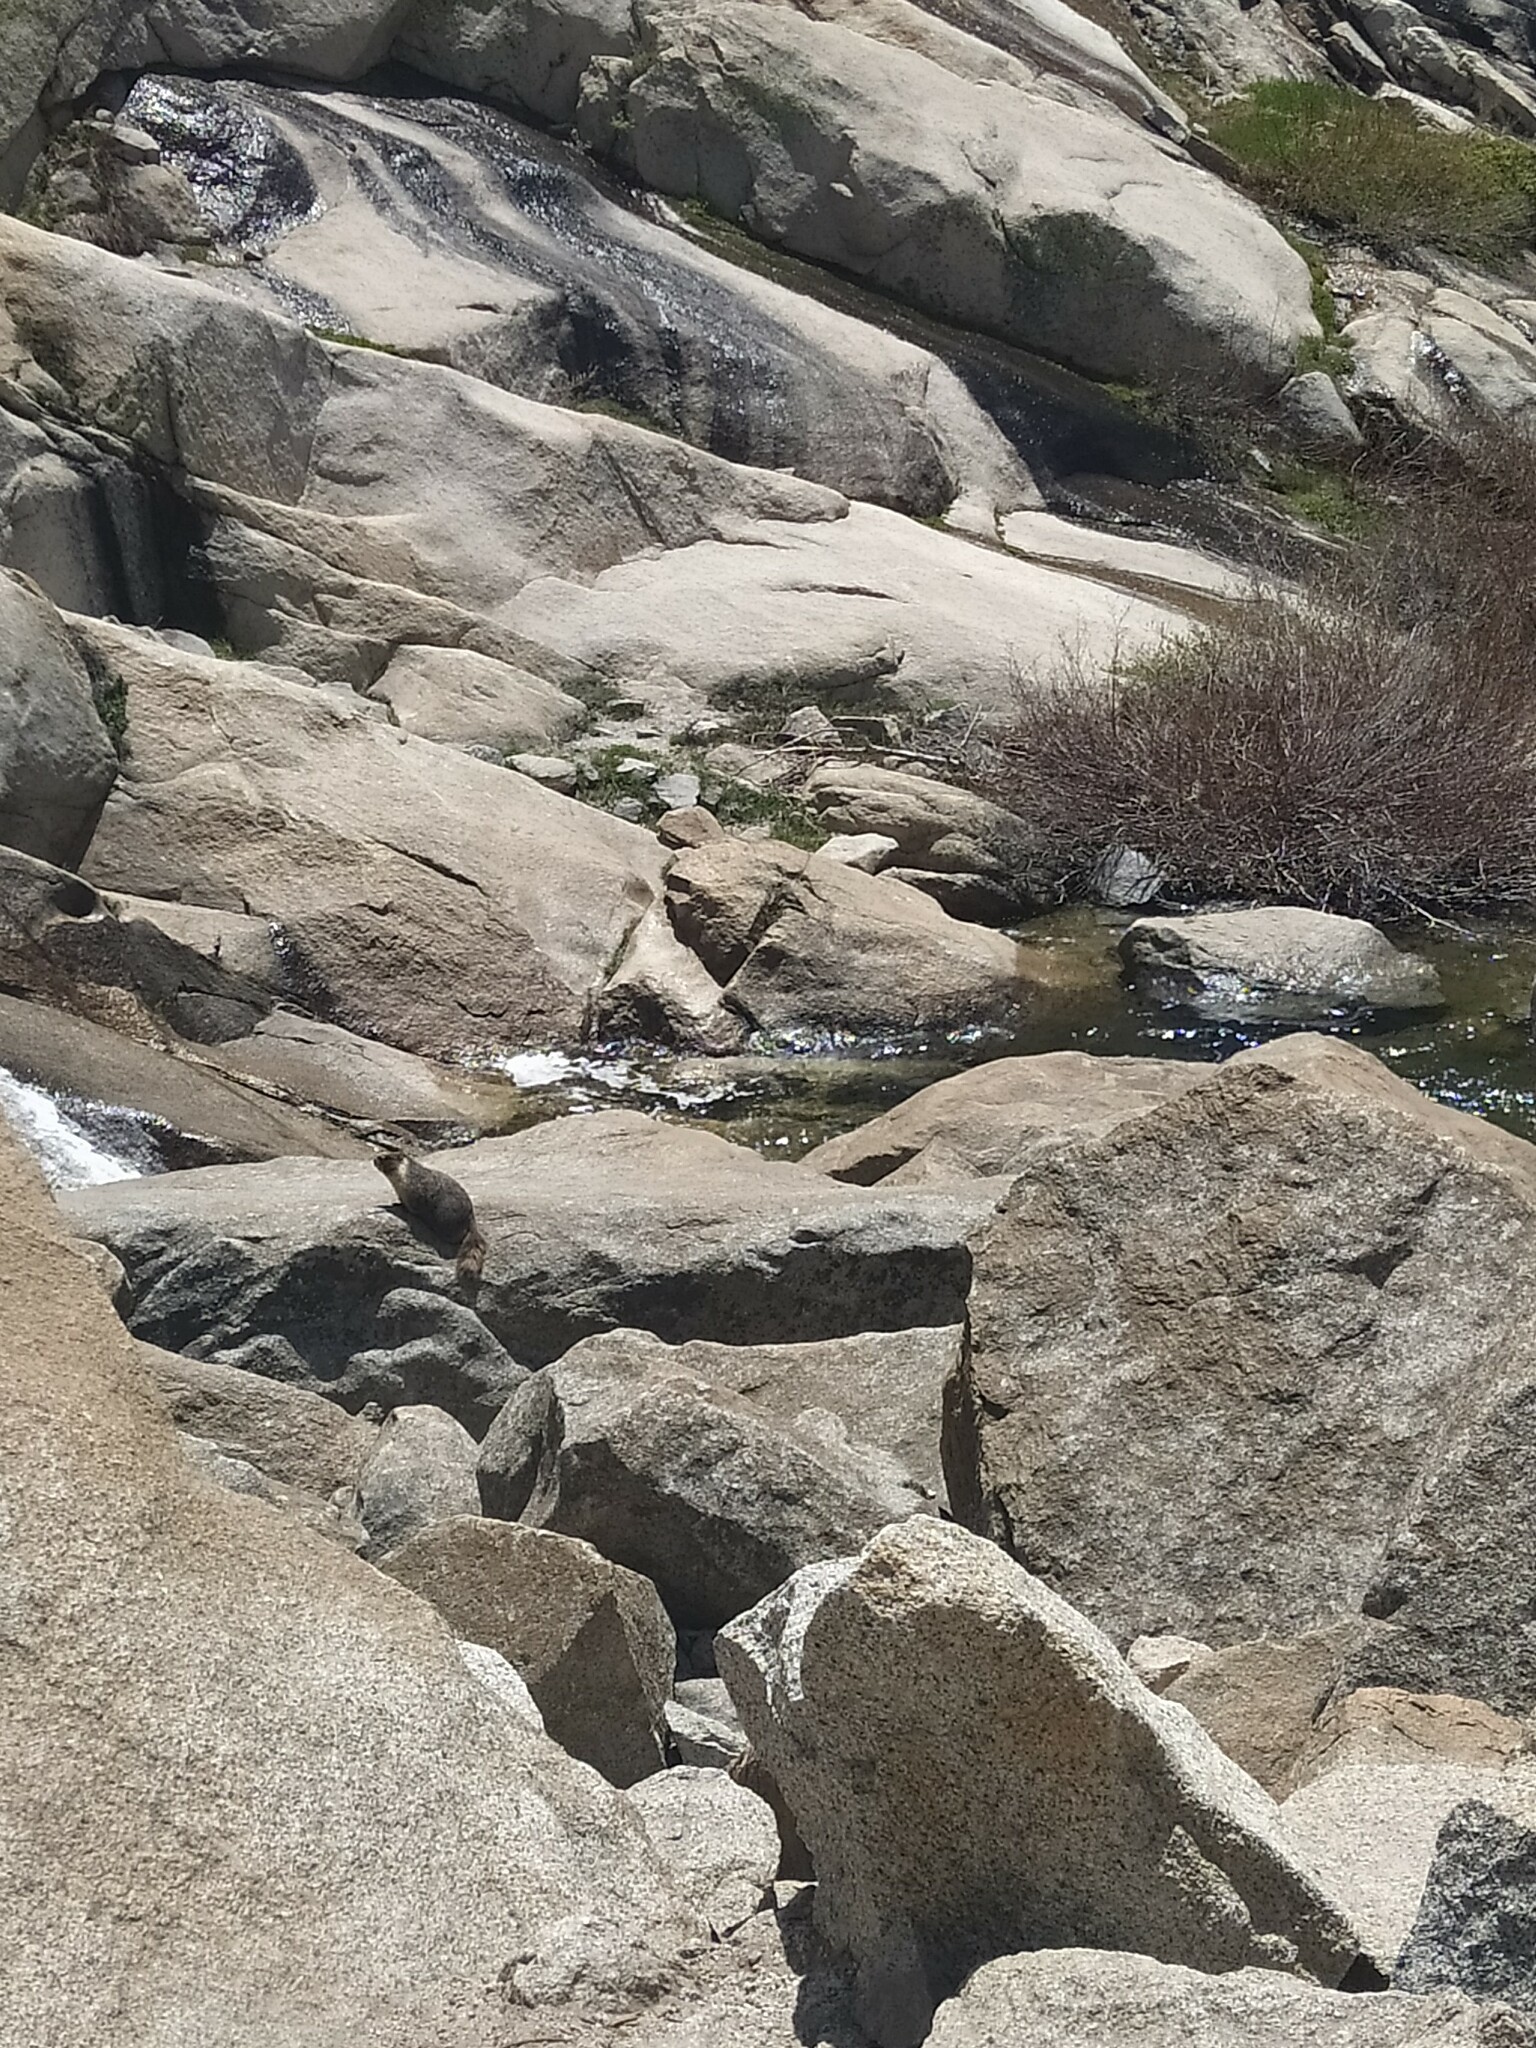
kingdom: Animalia
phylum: Chordata
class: Mammalia
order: Rodentia
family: Sciuridae
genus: Marmota
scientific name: Marmota flaviventris
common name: Yellow-bellied marmot
